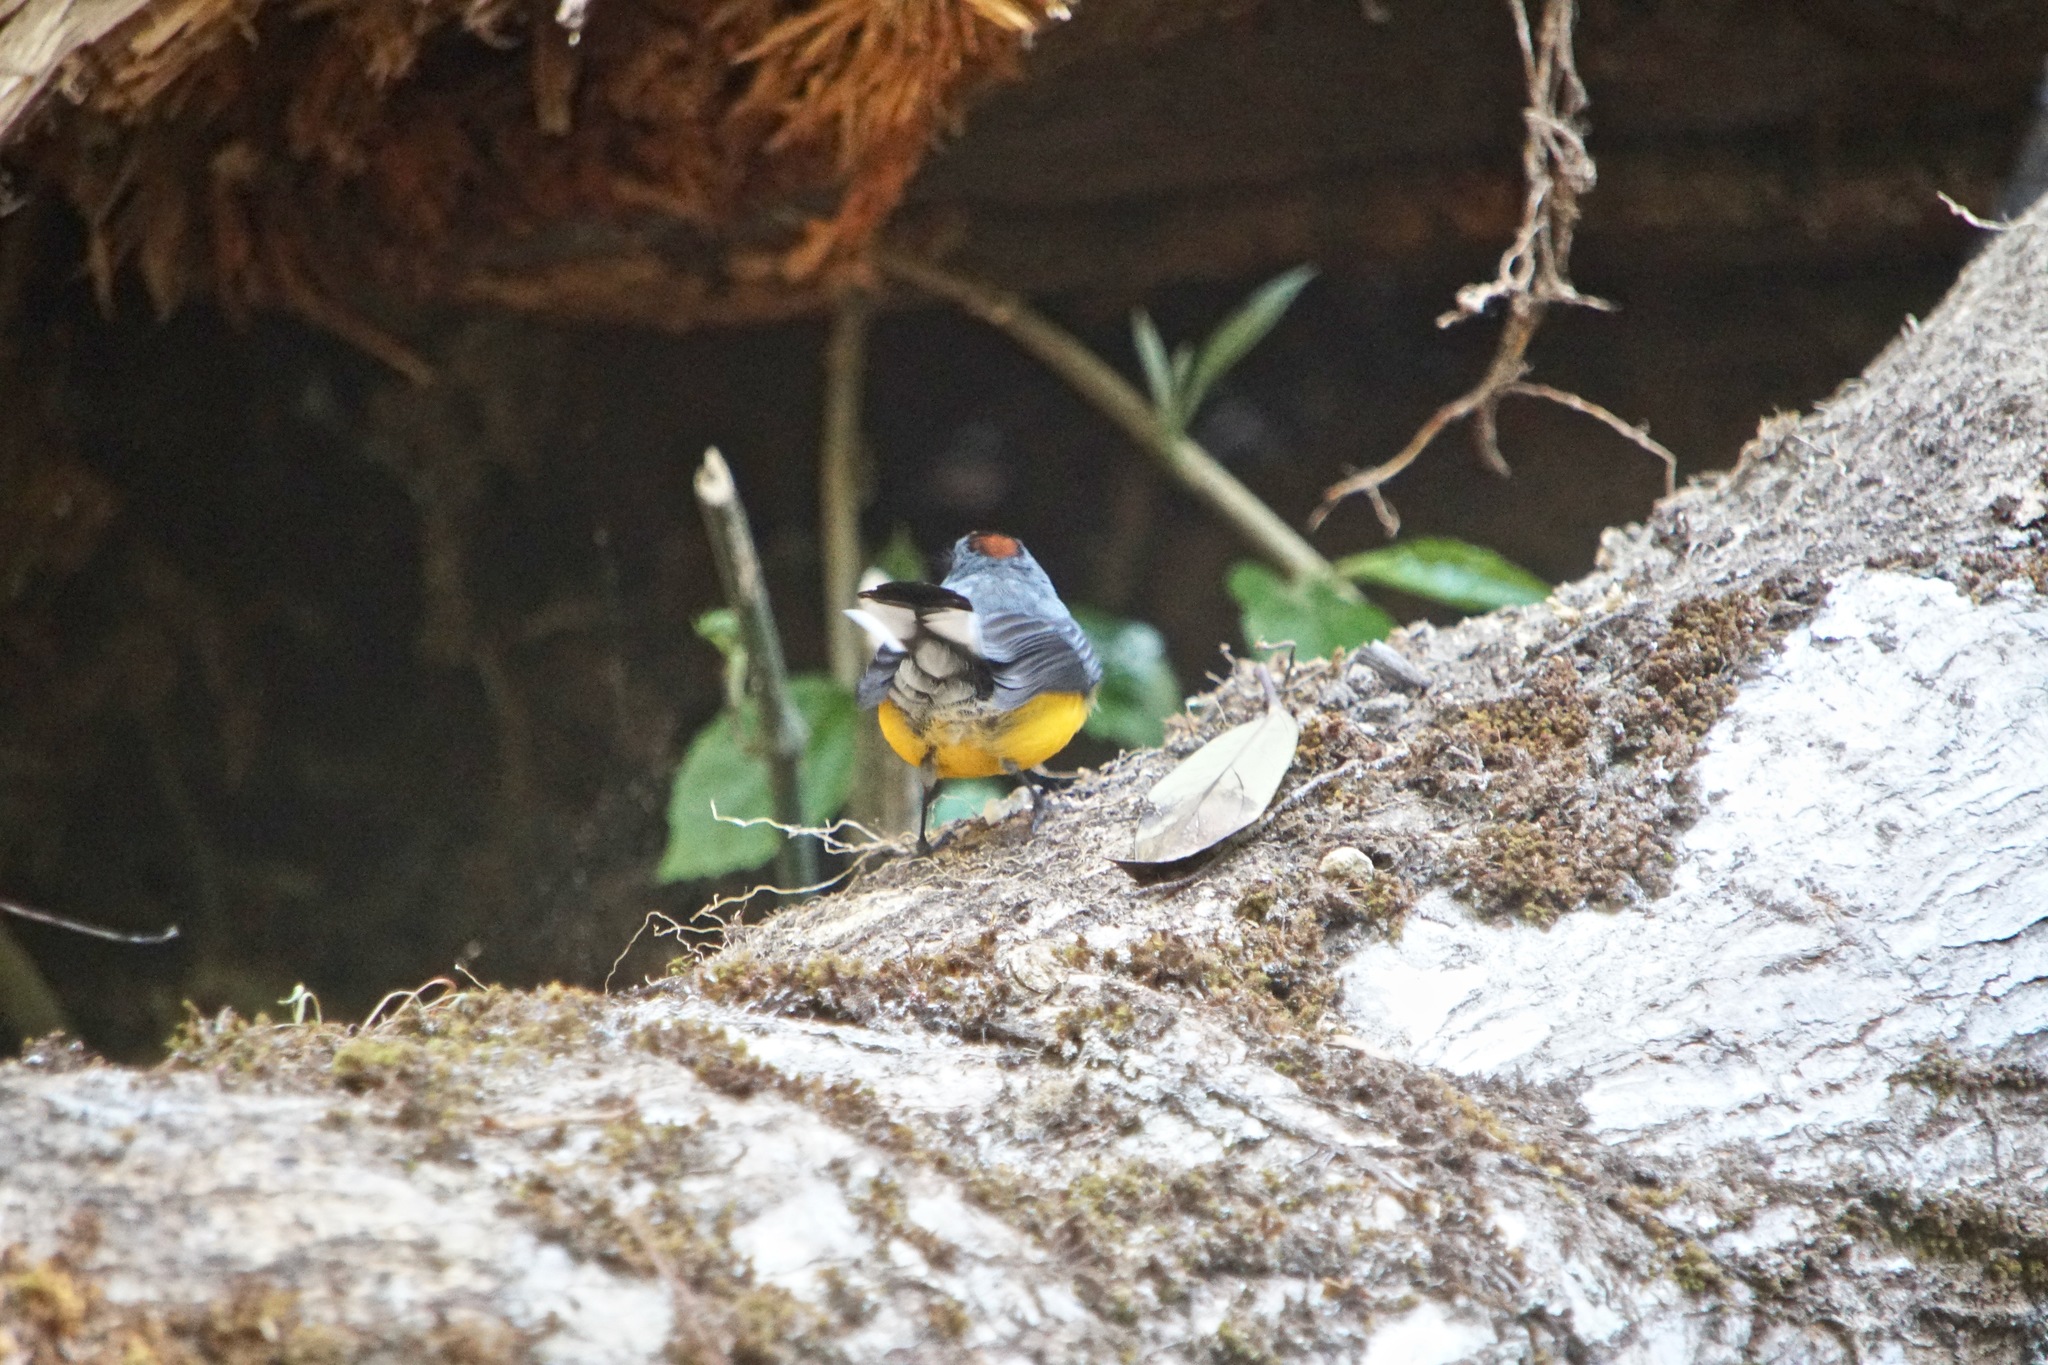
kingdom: Animalia
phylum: Chordata
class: Aves
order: Passeriformes
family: Parulidae
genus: Myioborus
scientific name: Myioborus miniatus
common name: Slate-throated redstart
